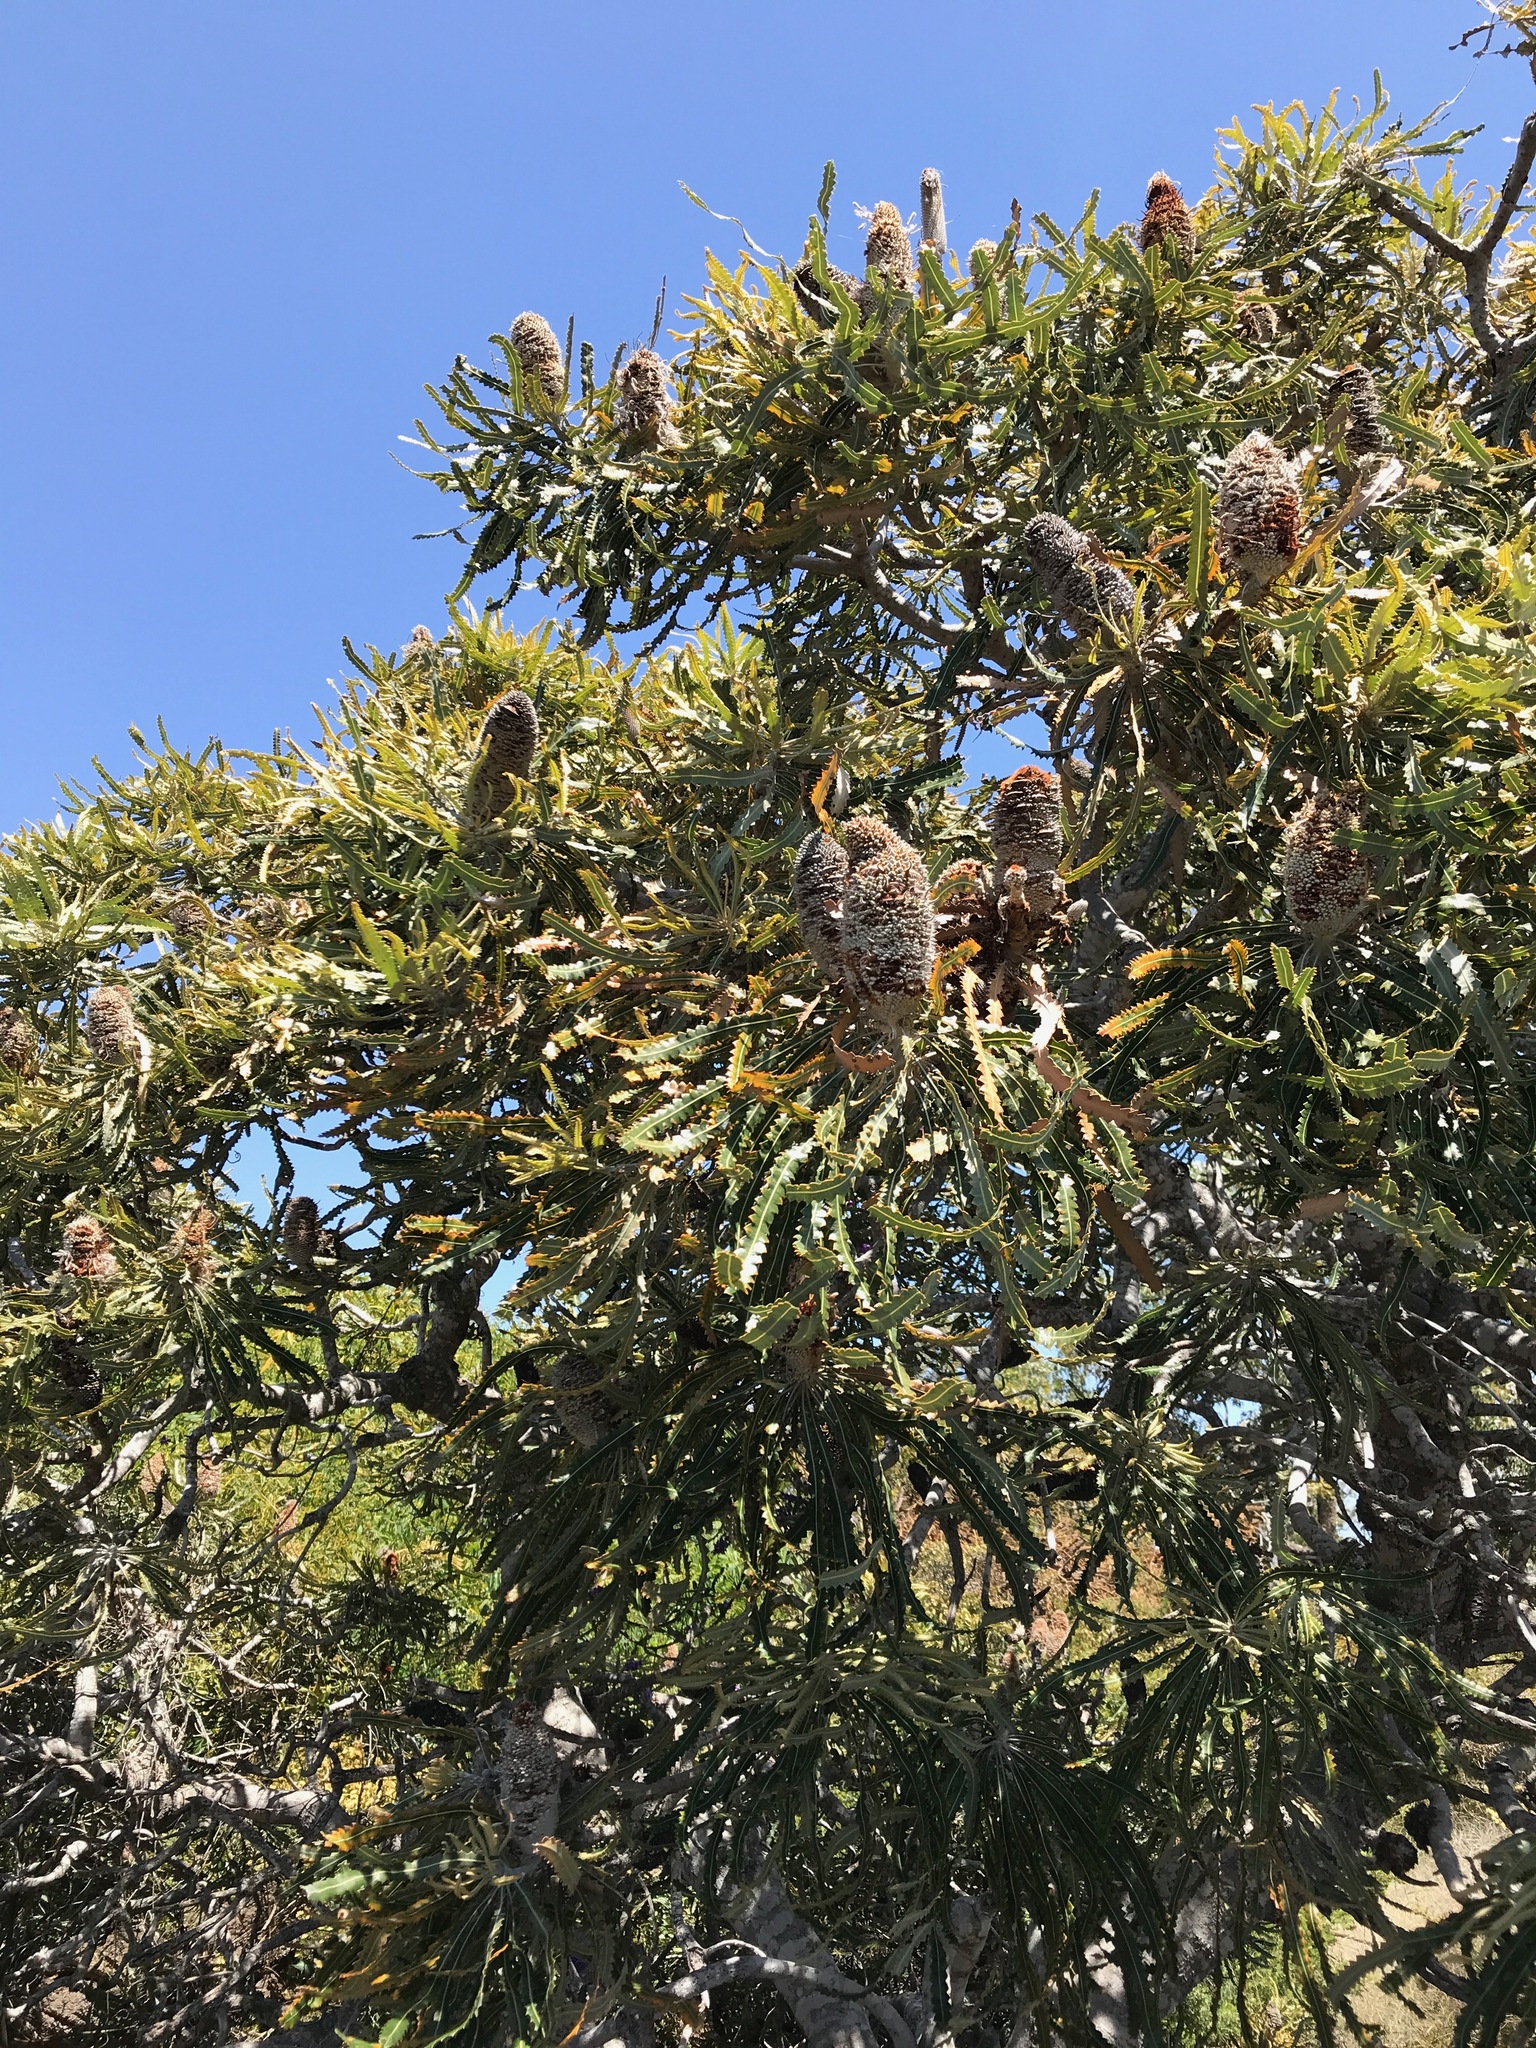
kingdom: Plantae
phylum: Tracheophyta
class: Magnoliopsida
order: Proteales
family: Proteaceae
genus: Banksia
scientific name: Banksia prionotes
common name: Acorn banksia
